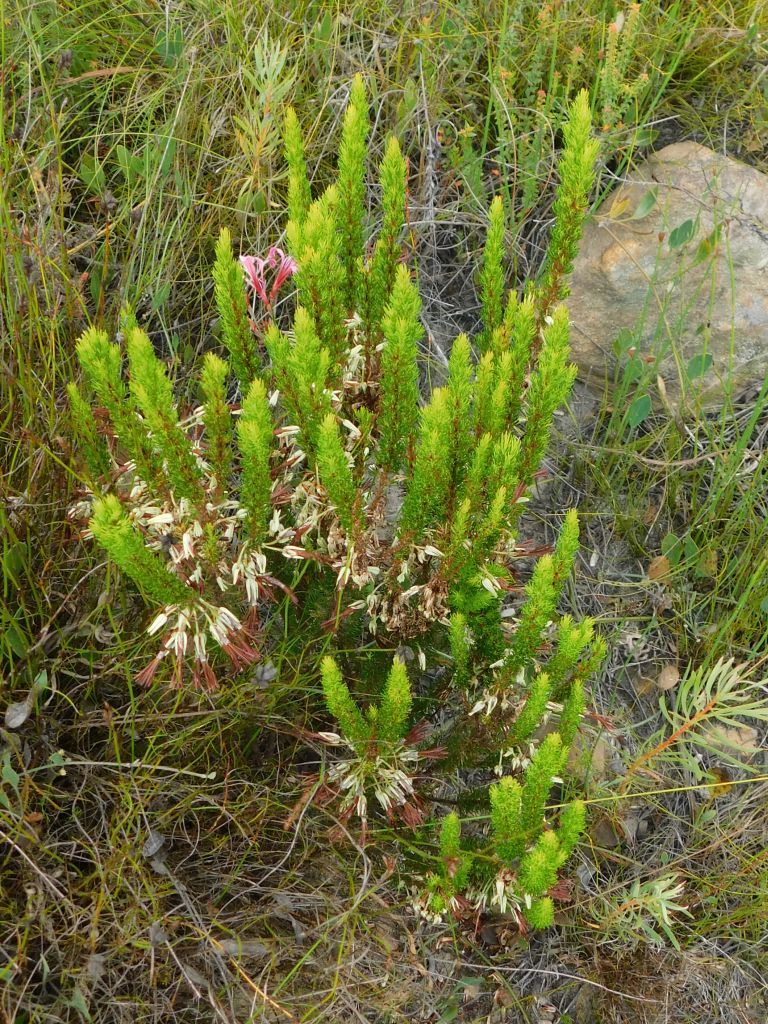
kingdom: Plantae
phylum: Tracheophyta
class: Magnoliopsida
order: Ericales
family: Ericaceae
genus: Erica
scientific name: Erica plukenetii
